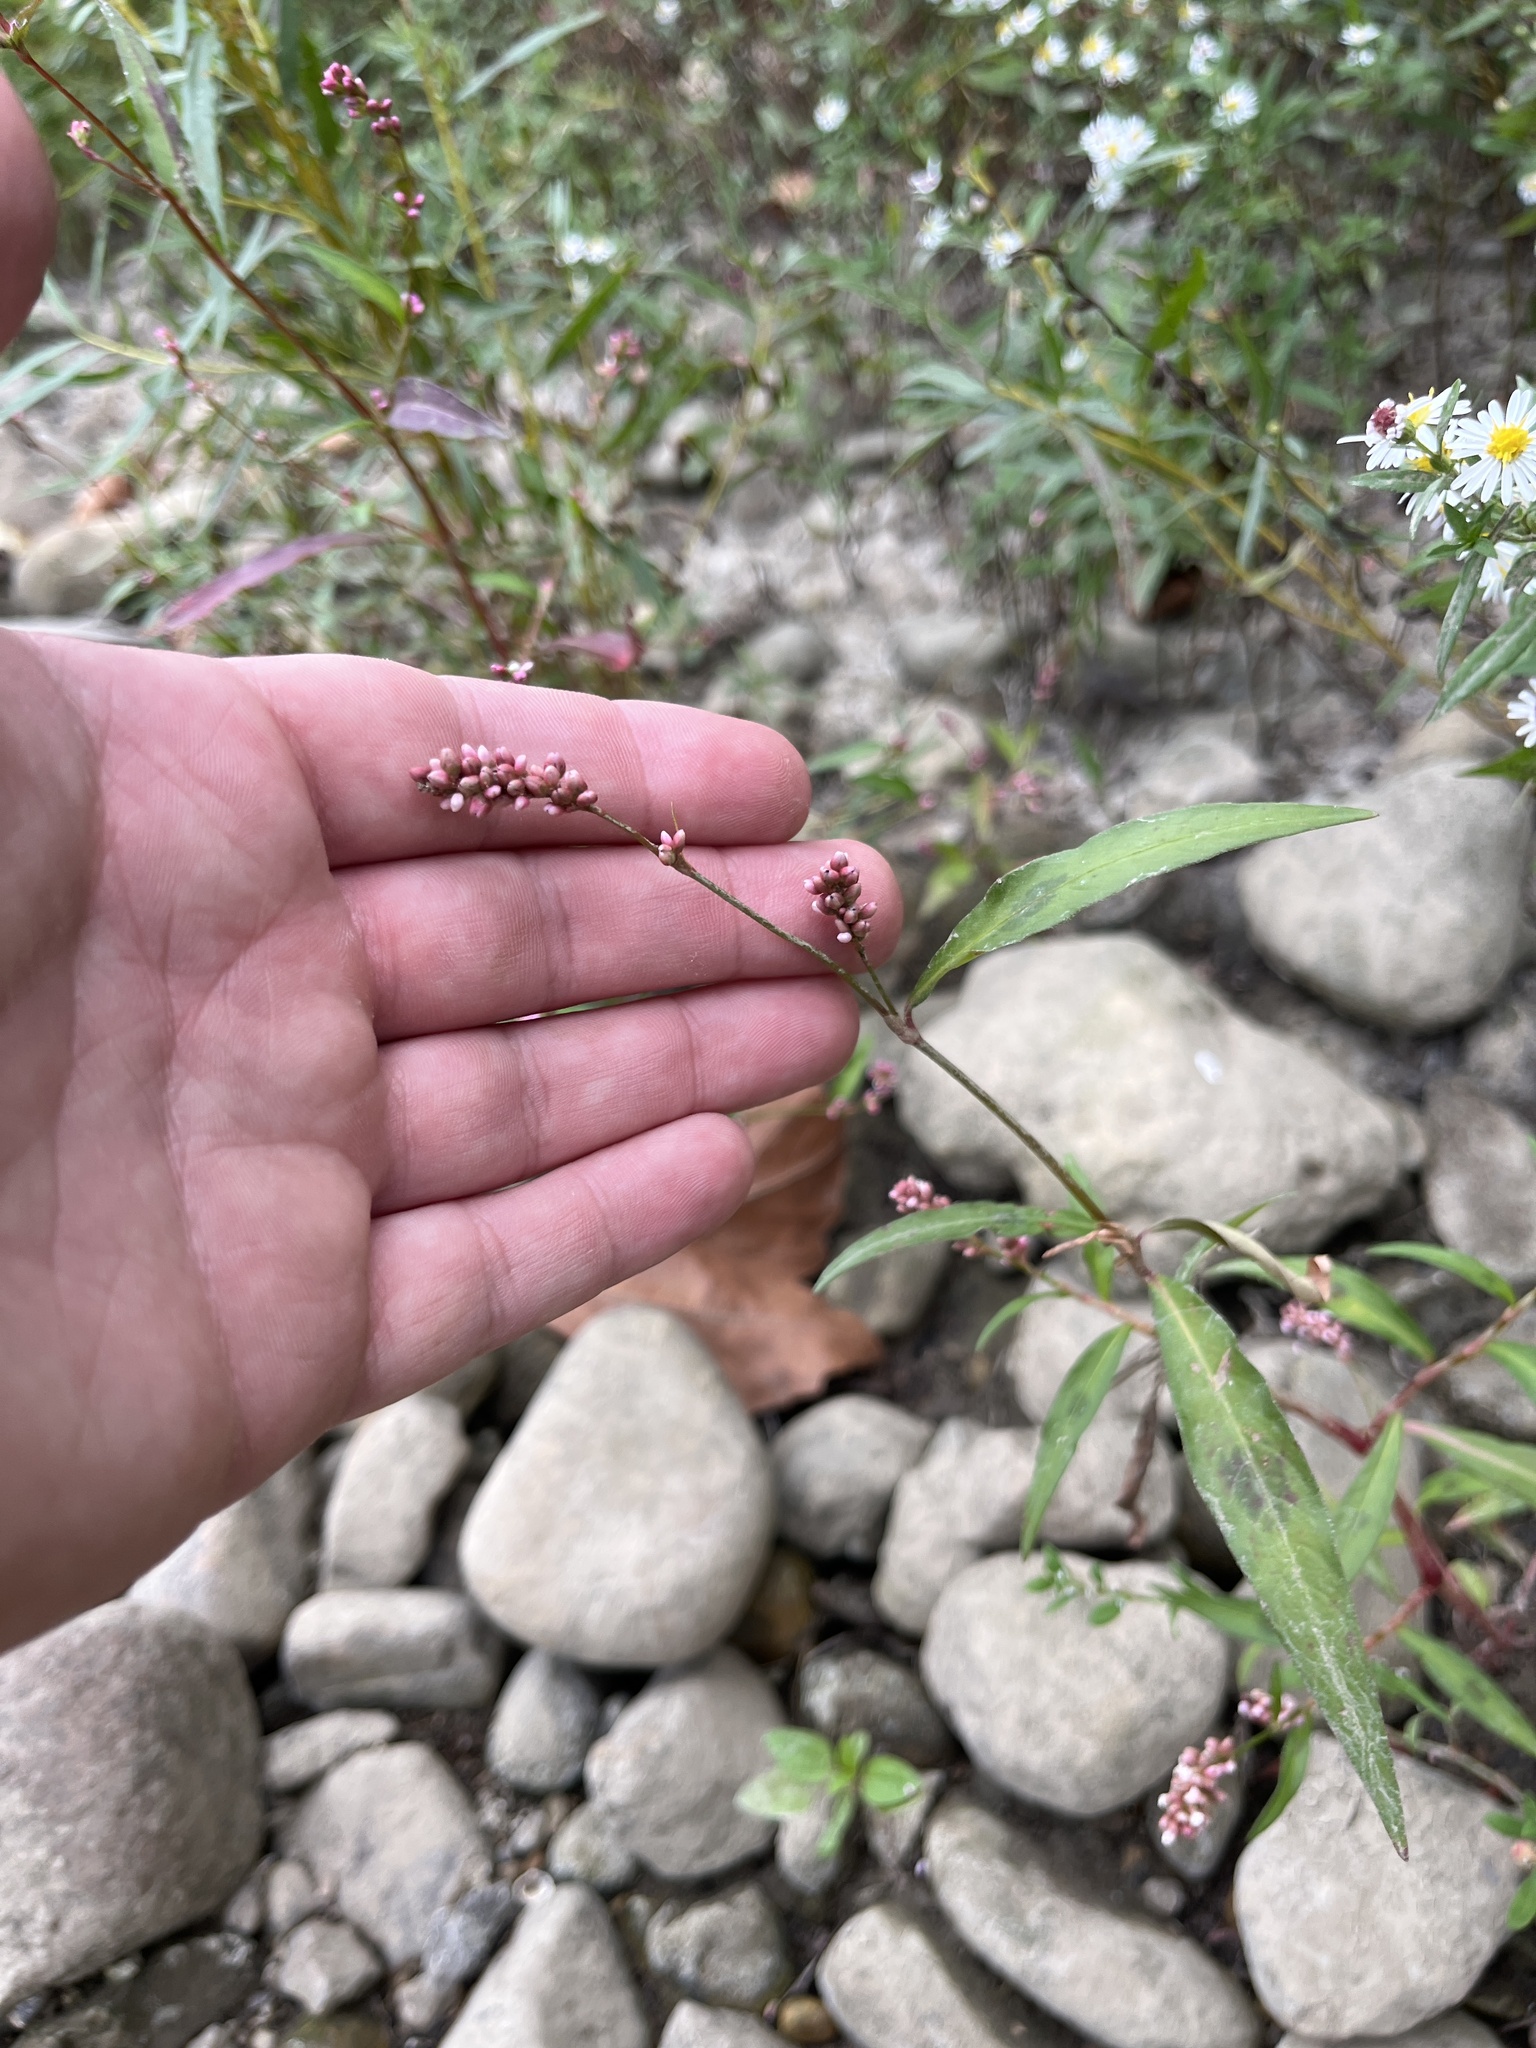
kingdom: Plantae
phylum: Tracheophyta
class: Magnoliopsida
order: Caryophyllales
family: Polygonaceae
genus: Persicaria
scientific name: Persicaria maculosa
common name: Redshank
